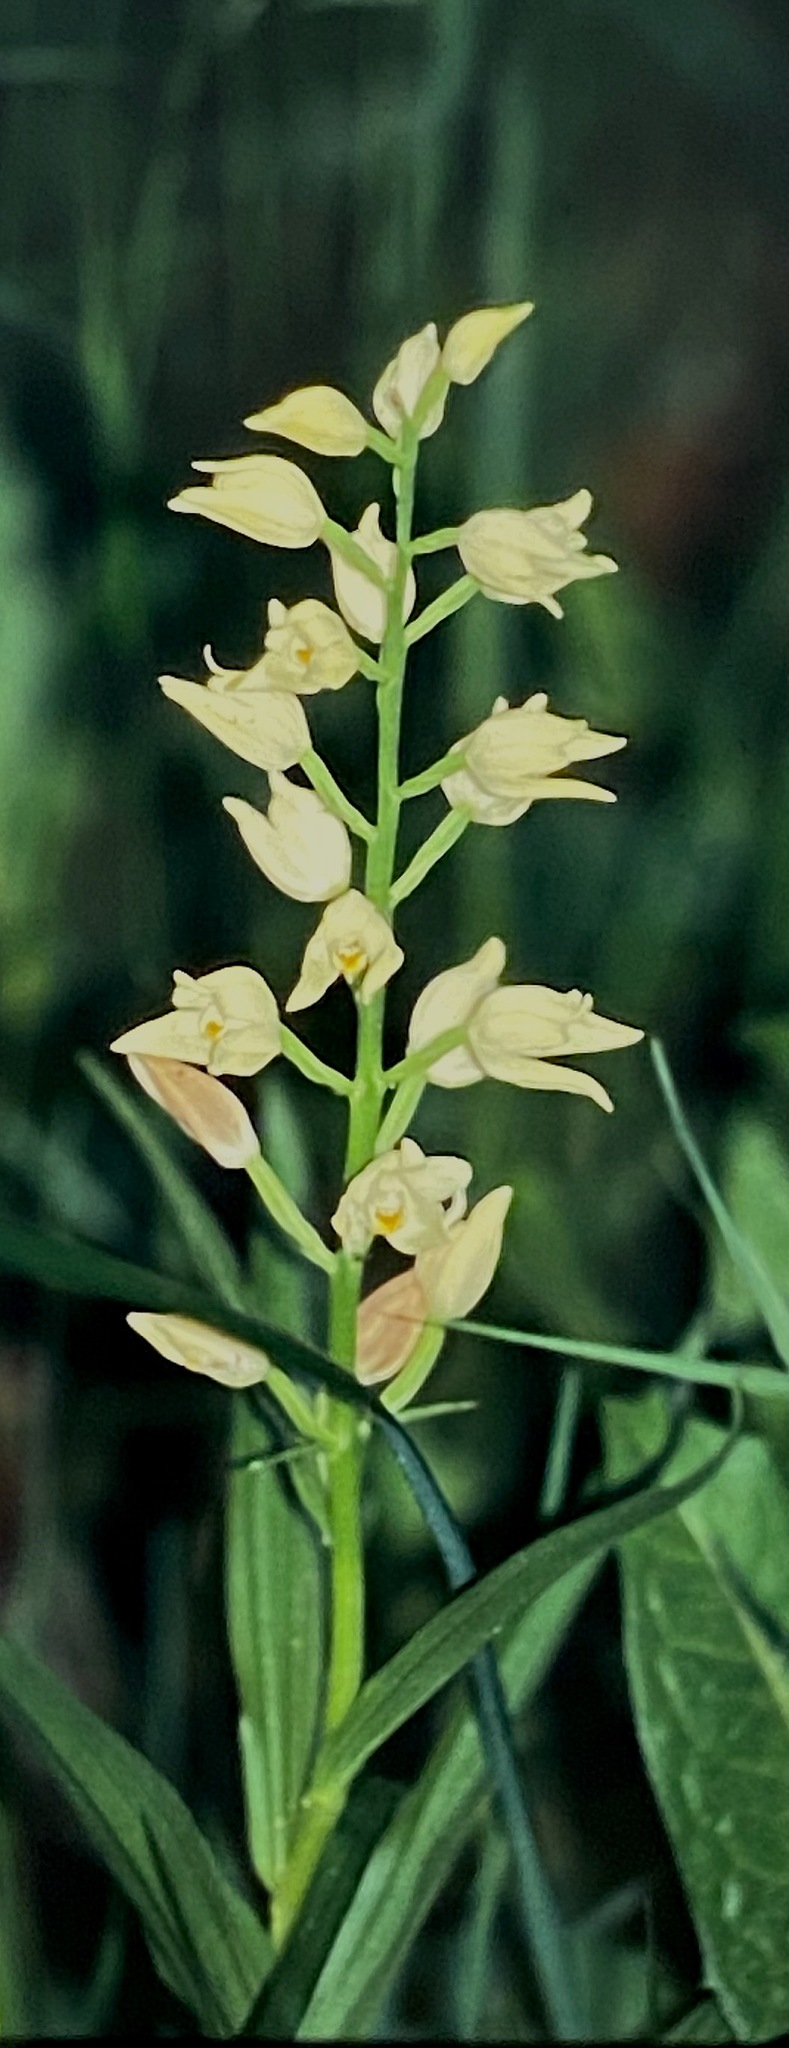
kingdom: Plantae
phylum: Tracheophyta
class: Liliopsida
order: Asparagales
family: Orchidaceae
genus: Cephalanthera
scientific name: Cephalanthera longifolia
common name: Narrow-leaved helleborine
